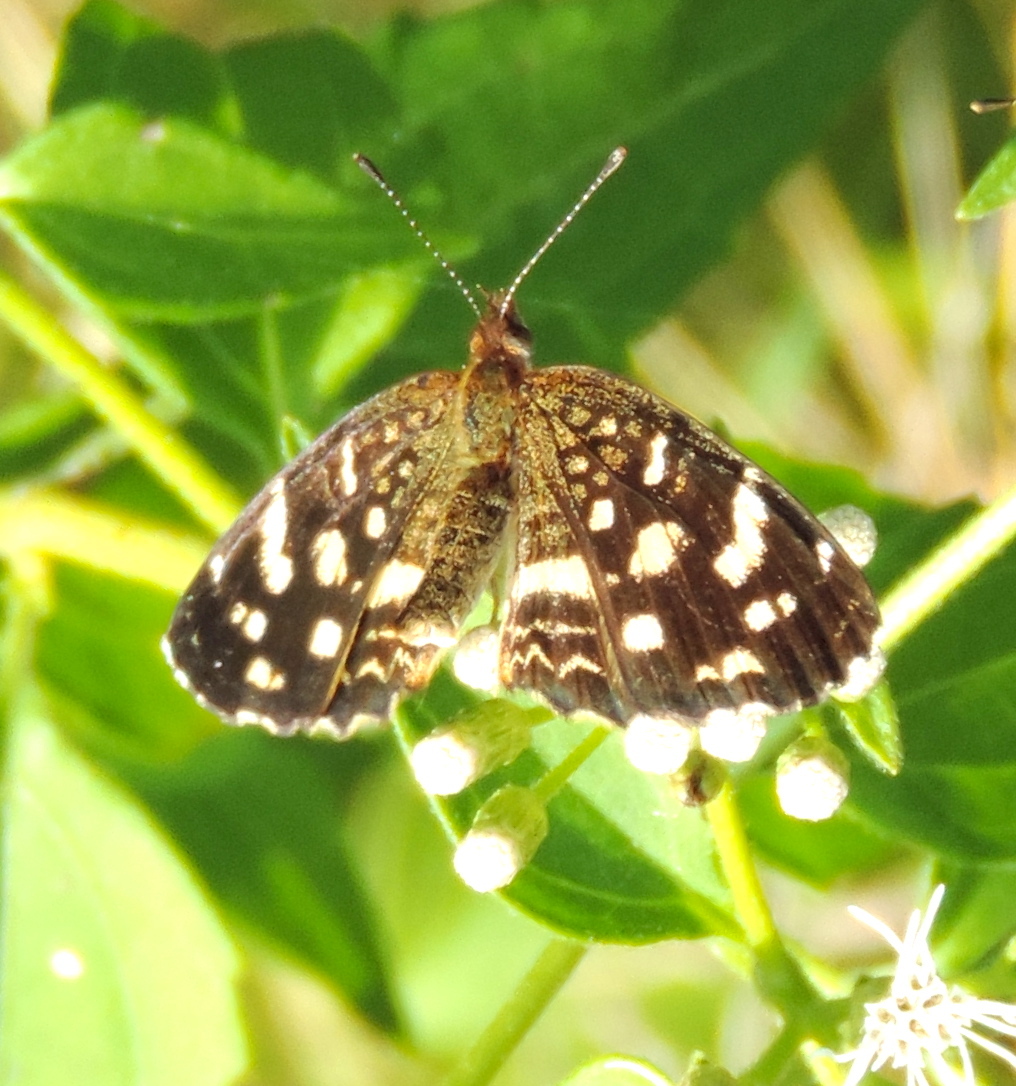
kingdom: Animalia
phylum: Arthropoda
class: Insecta
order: Lepidoptera
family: Nymphalidae
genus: Anthanassa
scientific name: Anthanassa tulcis
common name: Pale-banded crescent
